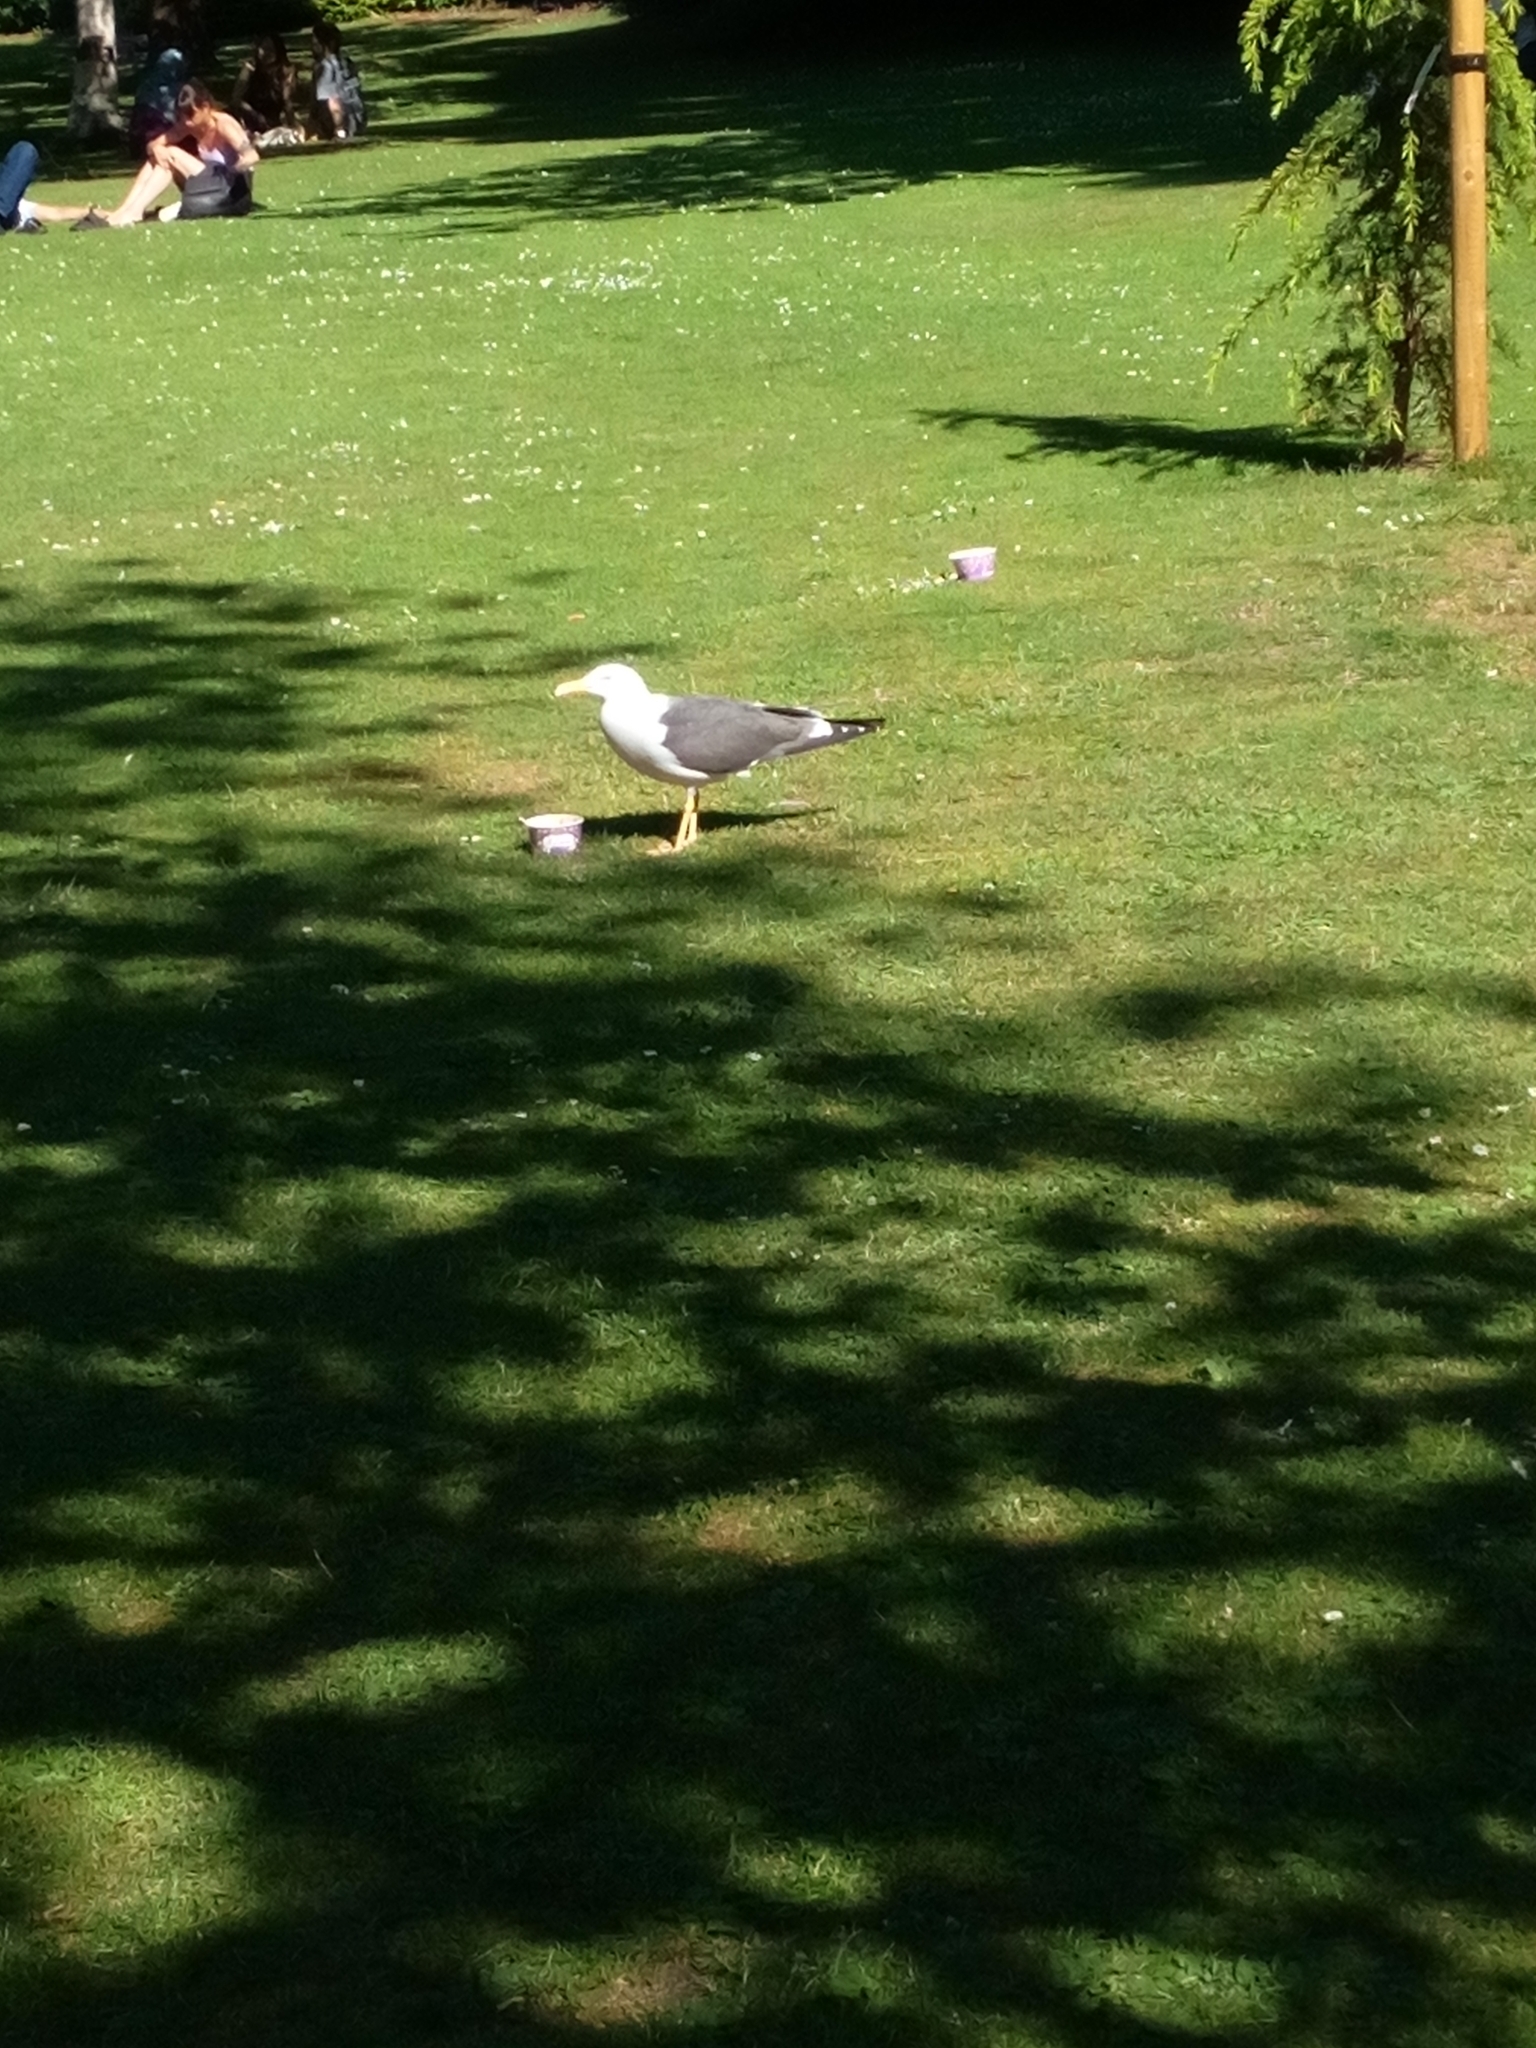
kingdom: Animalia
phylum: Chordata
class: Aves
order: Charadriiformes
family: Laridae
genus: Larus
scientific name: Larus fuscus
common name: Lesser black-backed gull
